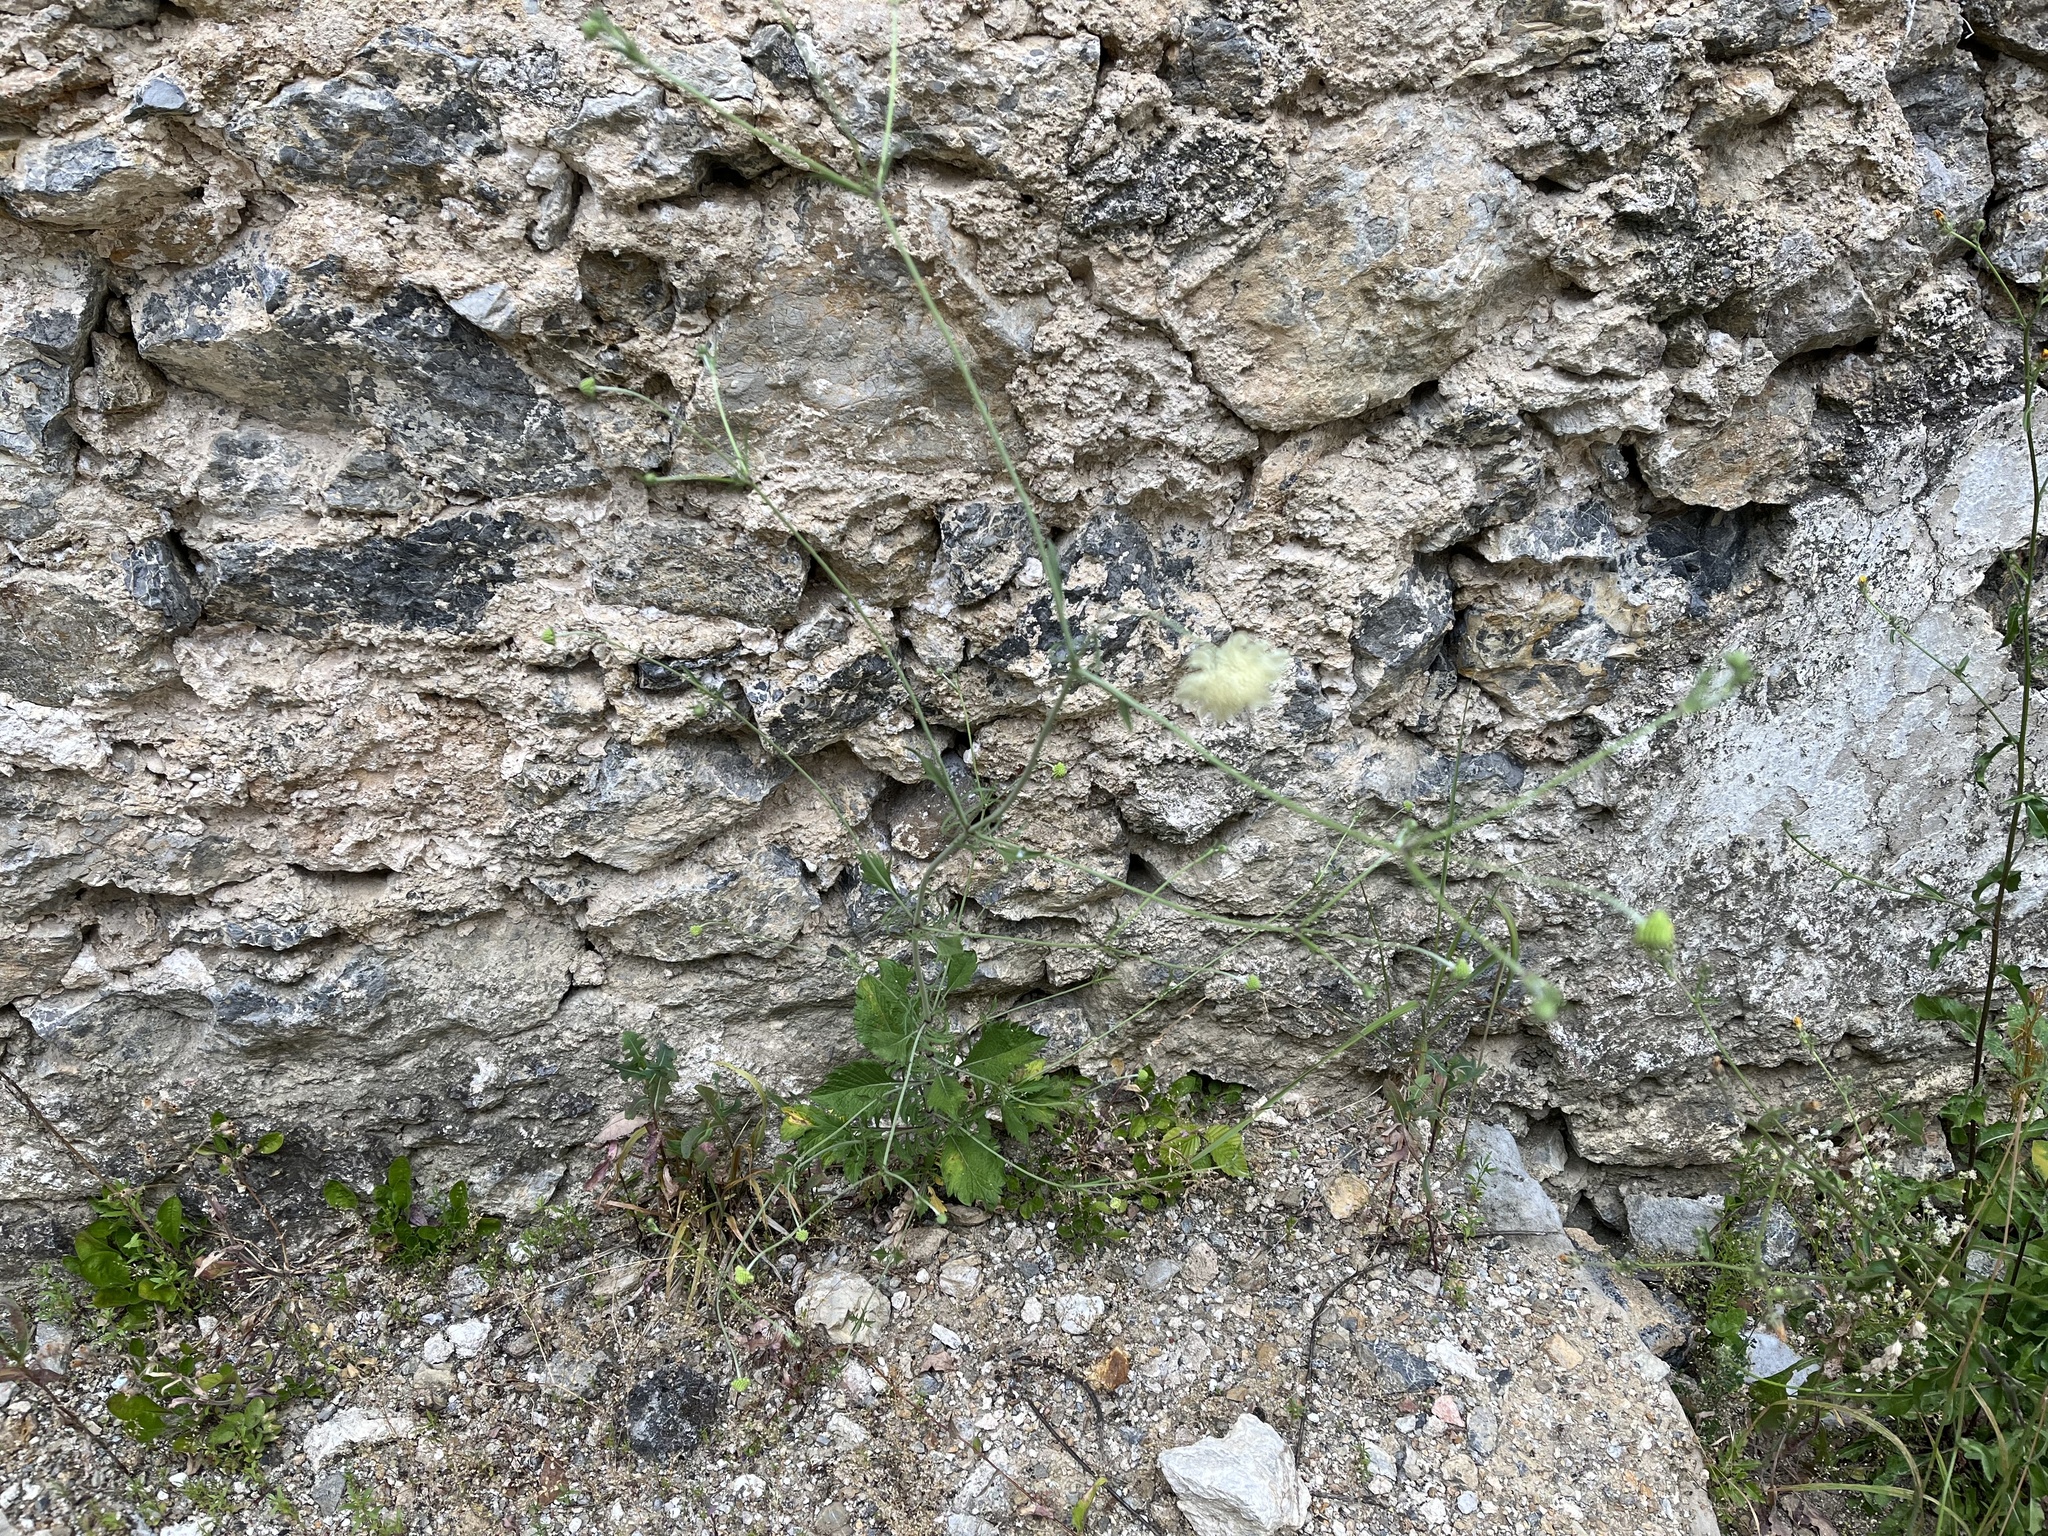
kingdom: Plantae
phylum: Tracheophyta
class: Magnoliopsida
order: Dipsacales
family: Caprifoliaceae
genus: Scabiosa
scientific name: Scabiosa ochroleuca
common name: Cream pincushions
